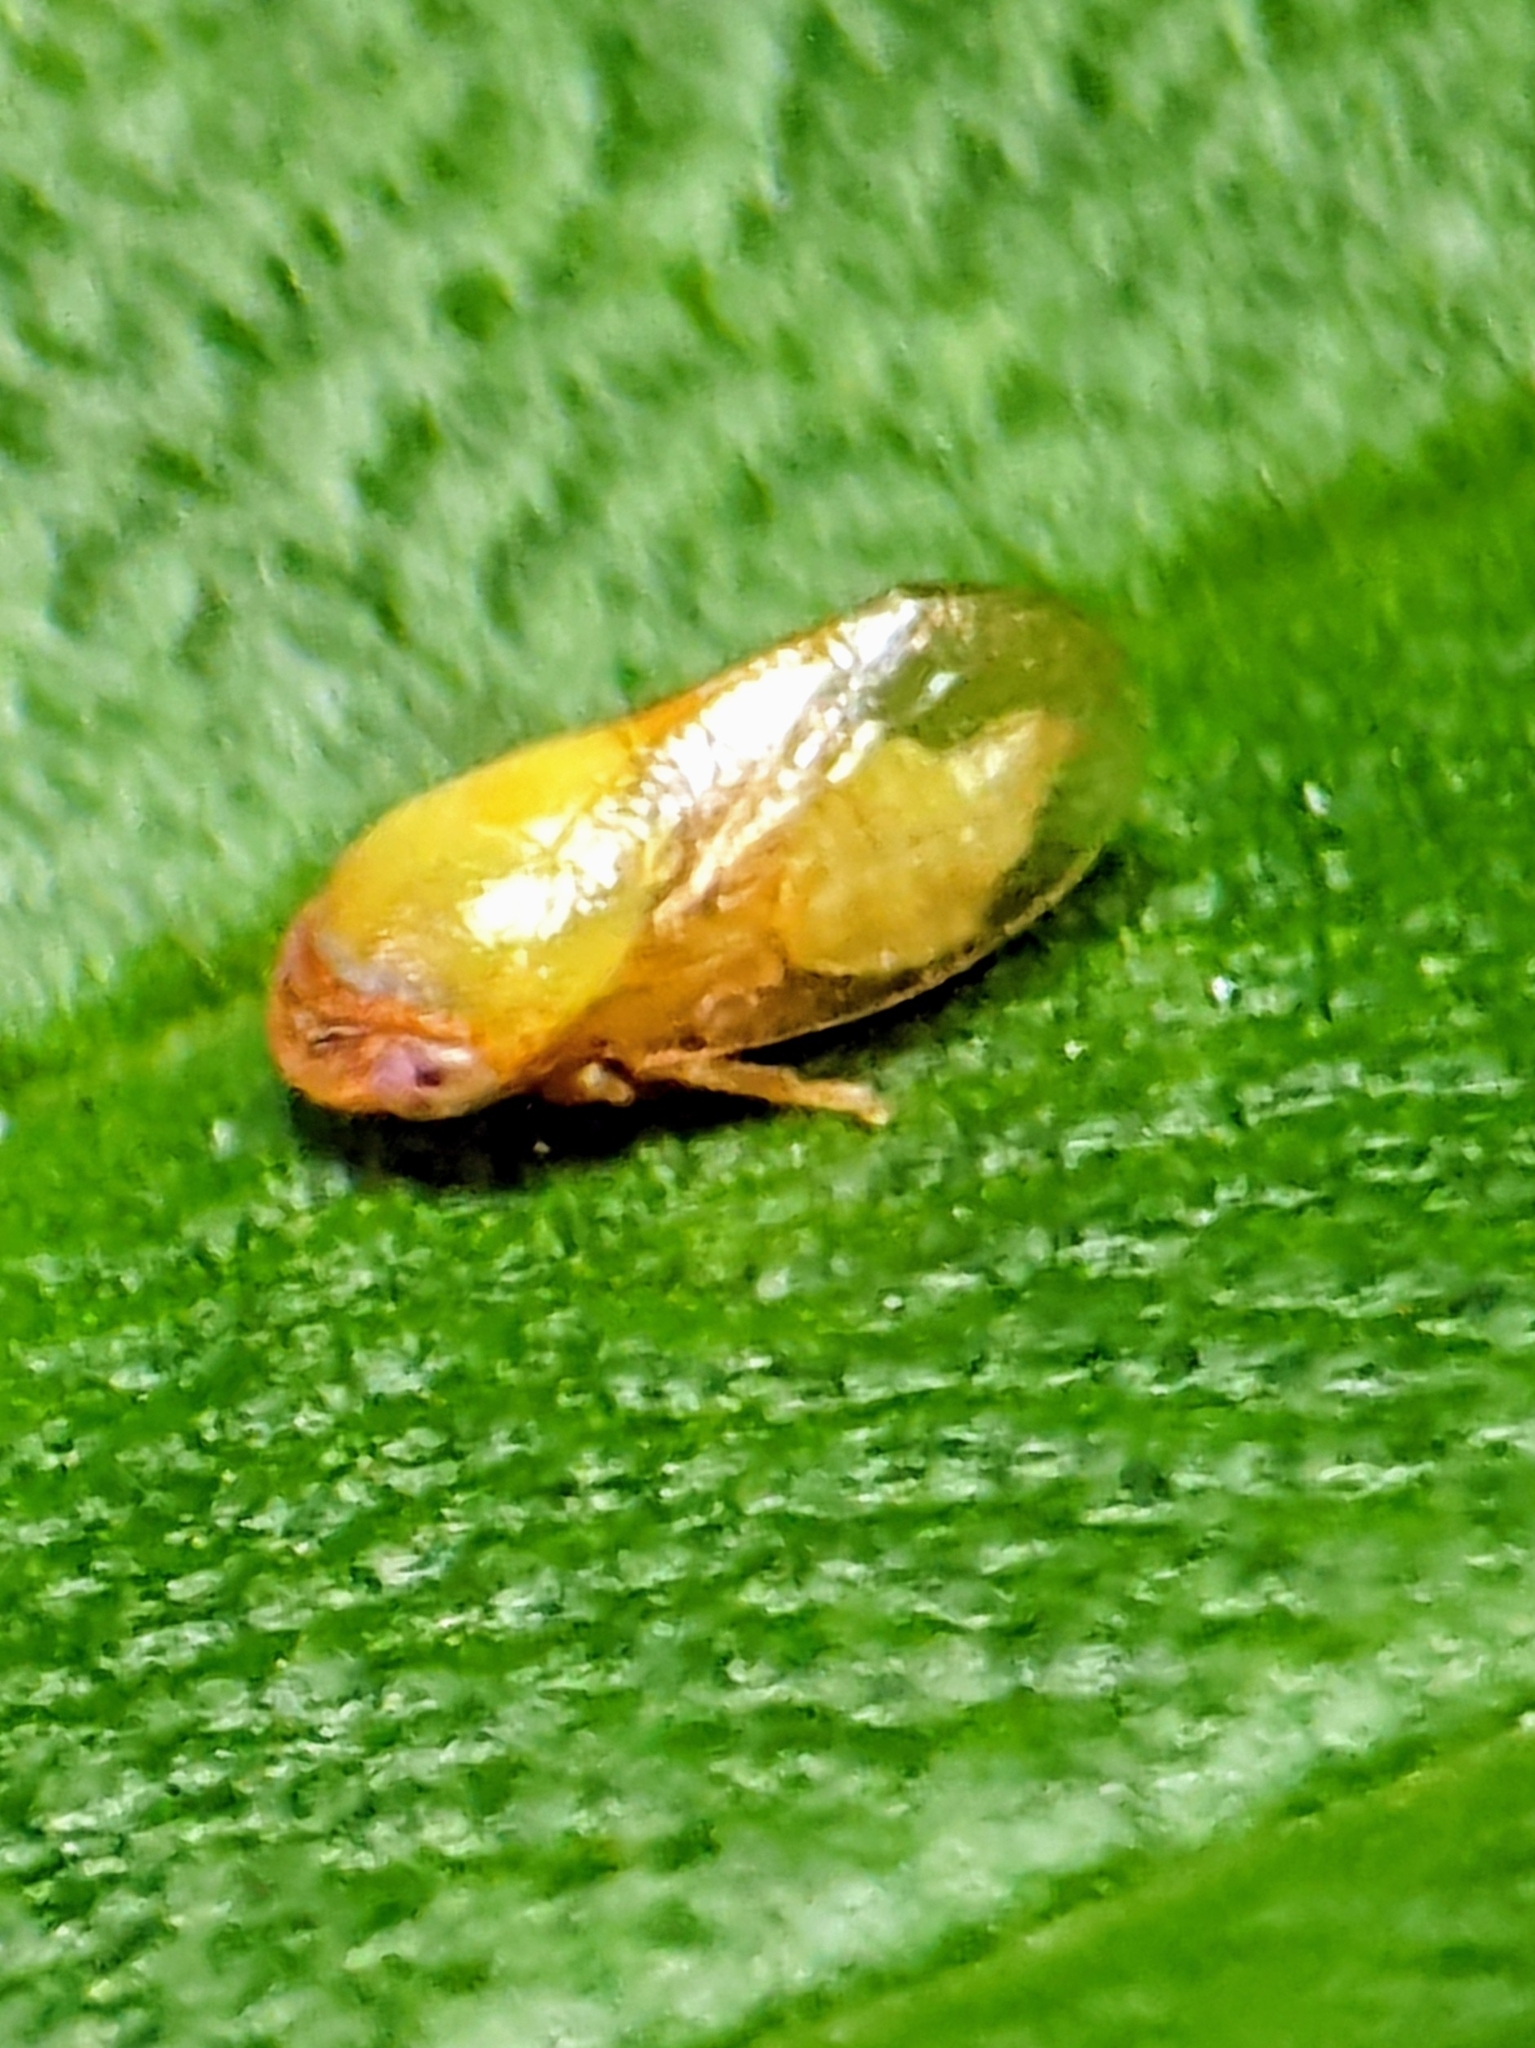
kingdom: Animalia
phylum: Arthropoda
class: Insecta
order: Hemiptera
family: Machaerotidae
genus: Hindola
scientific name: Hindola viridicans
